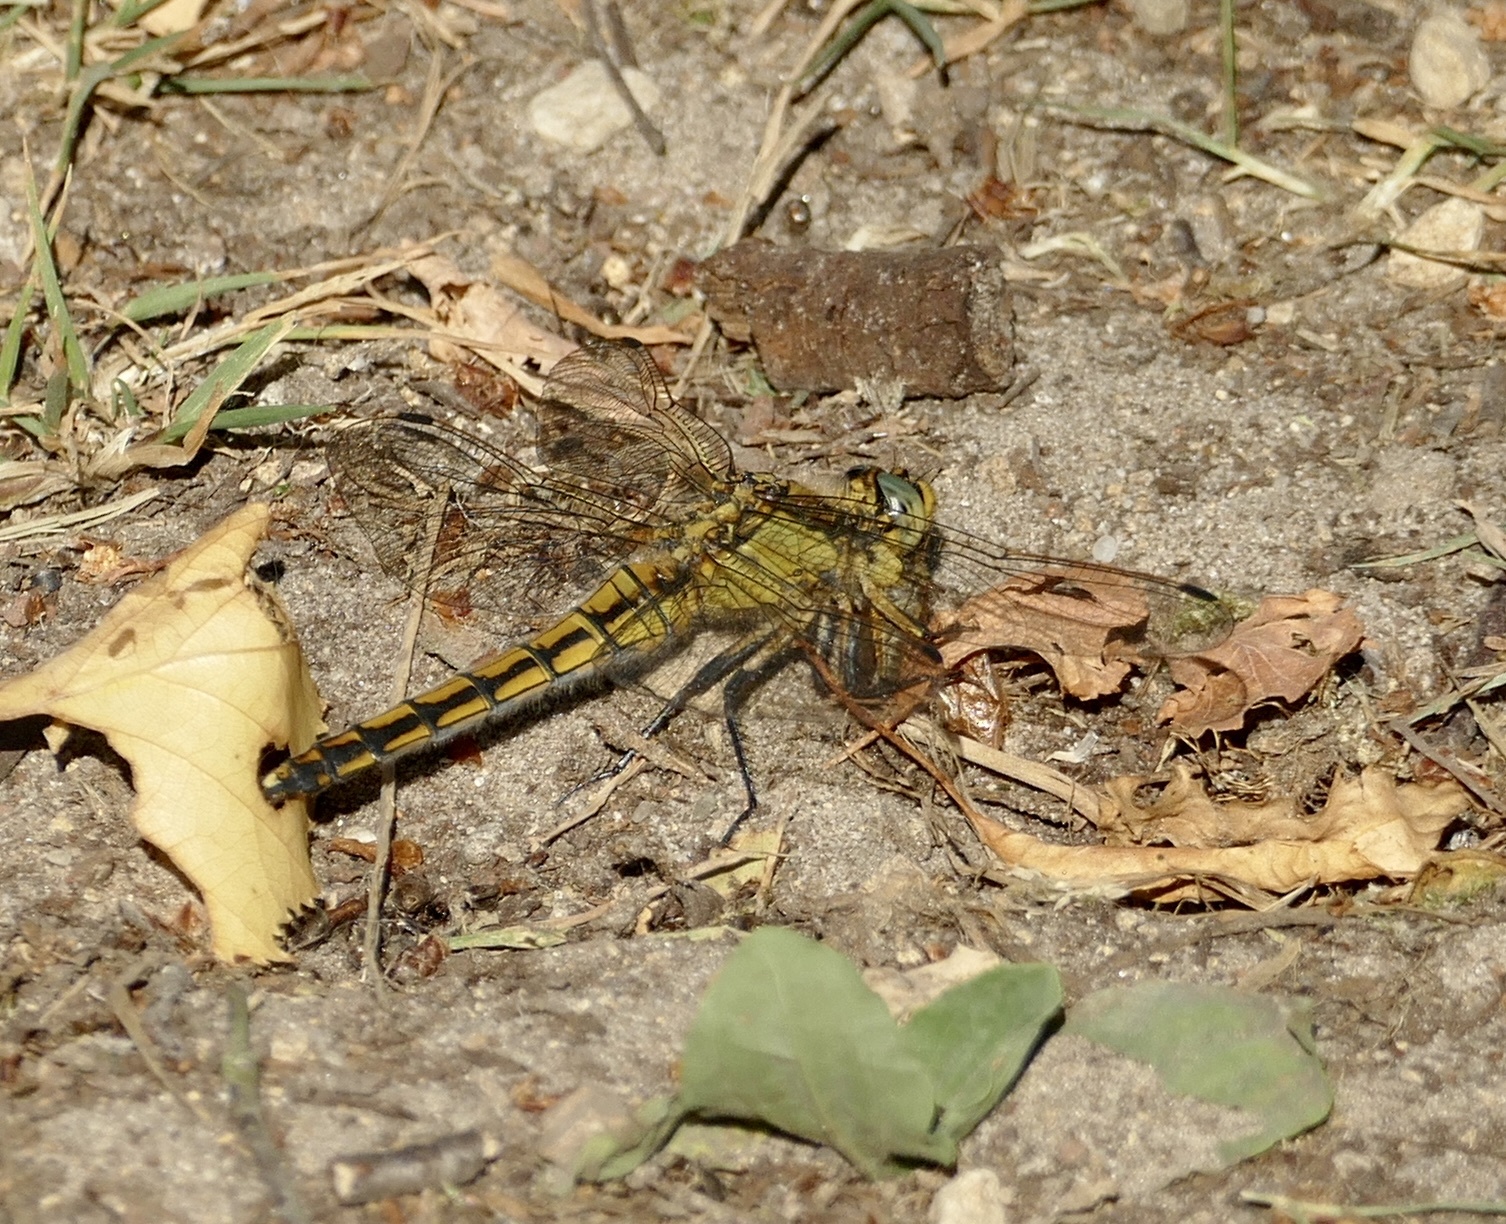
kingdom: Animalia
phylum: Arthropoda
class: Insecta
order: Odonata
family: Libellulidae
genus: Orthetrum
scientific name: Orthetrum cancellatum
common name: Black-tailed skimmer
